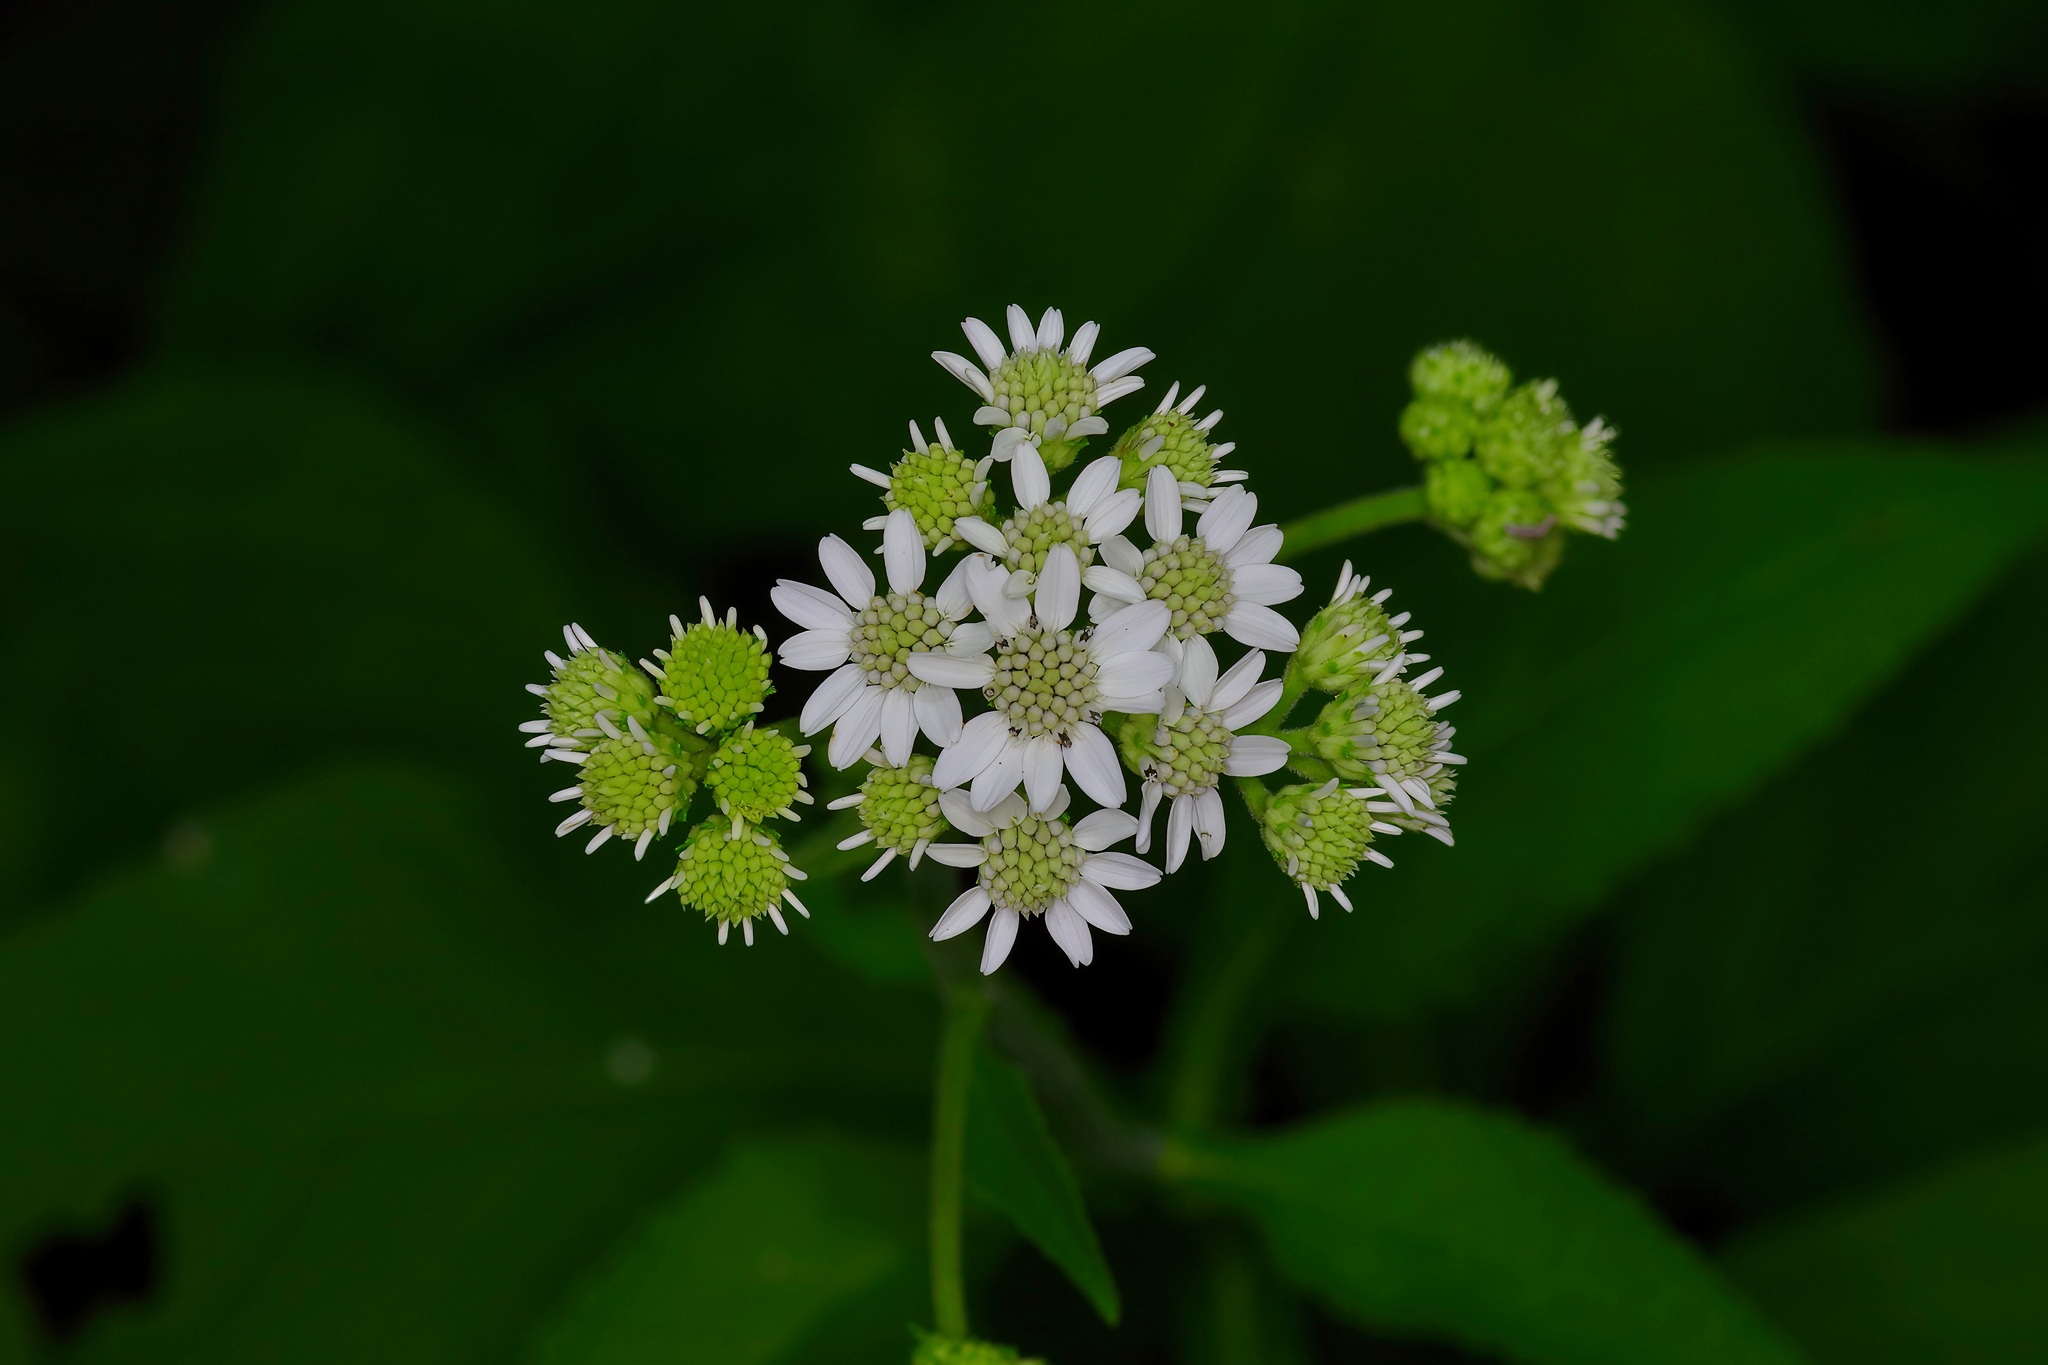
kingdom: Plantae
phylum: Tracheophyta
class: Magnoliopsida
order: Asterales
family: Asteraceae
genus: Verbesina
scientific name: Verbesina microptera
